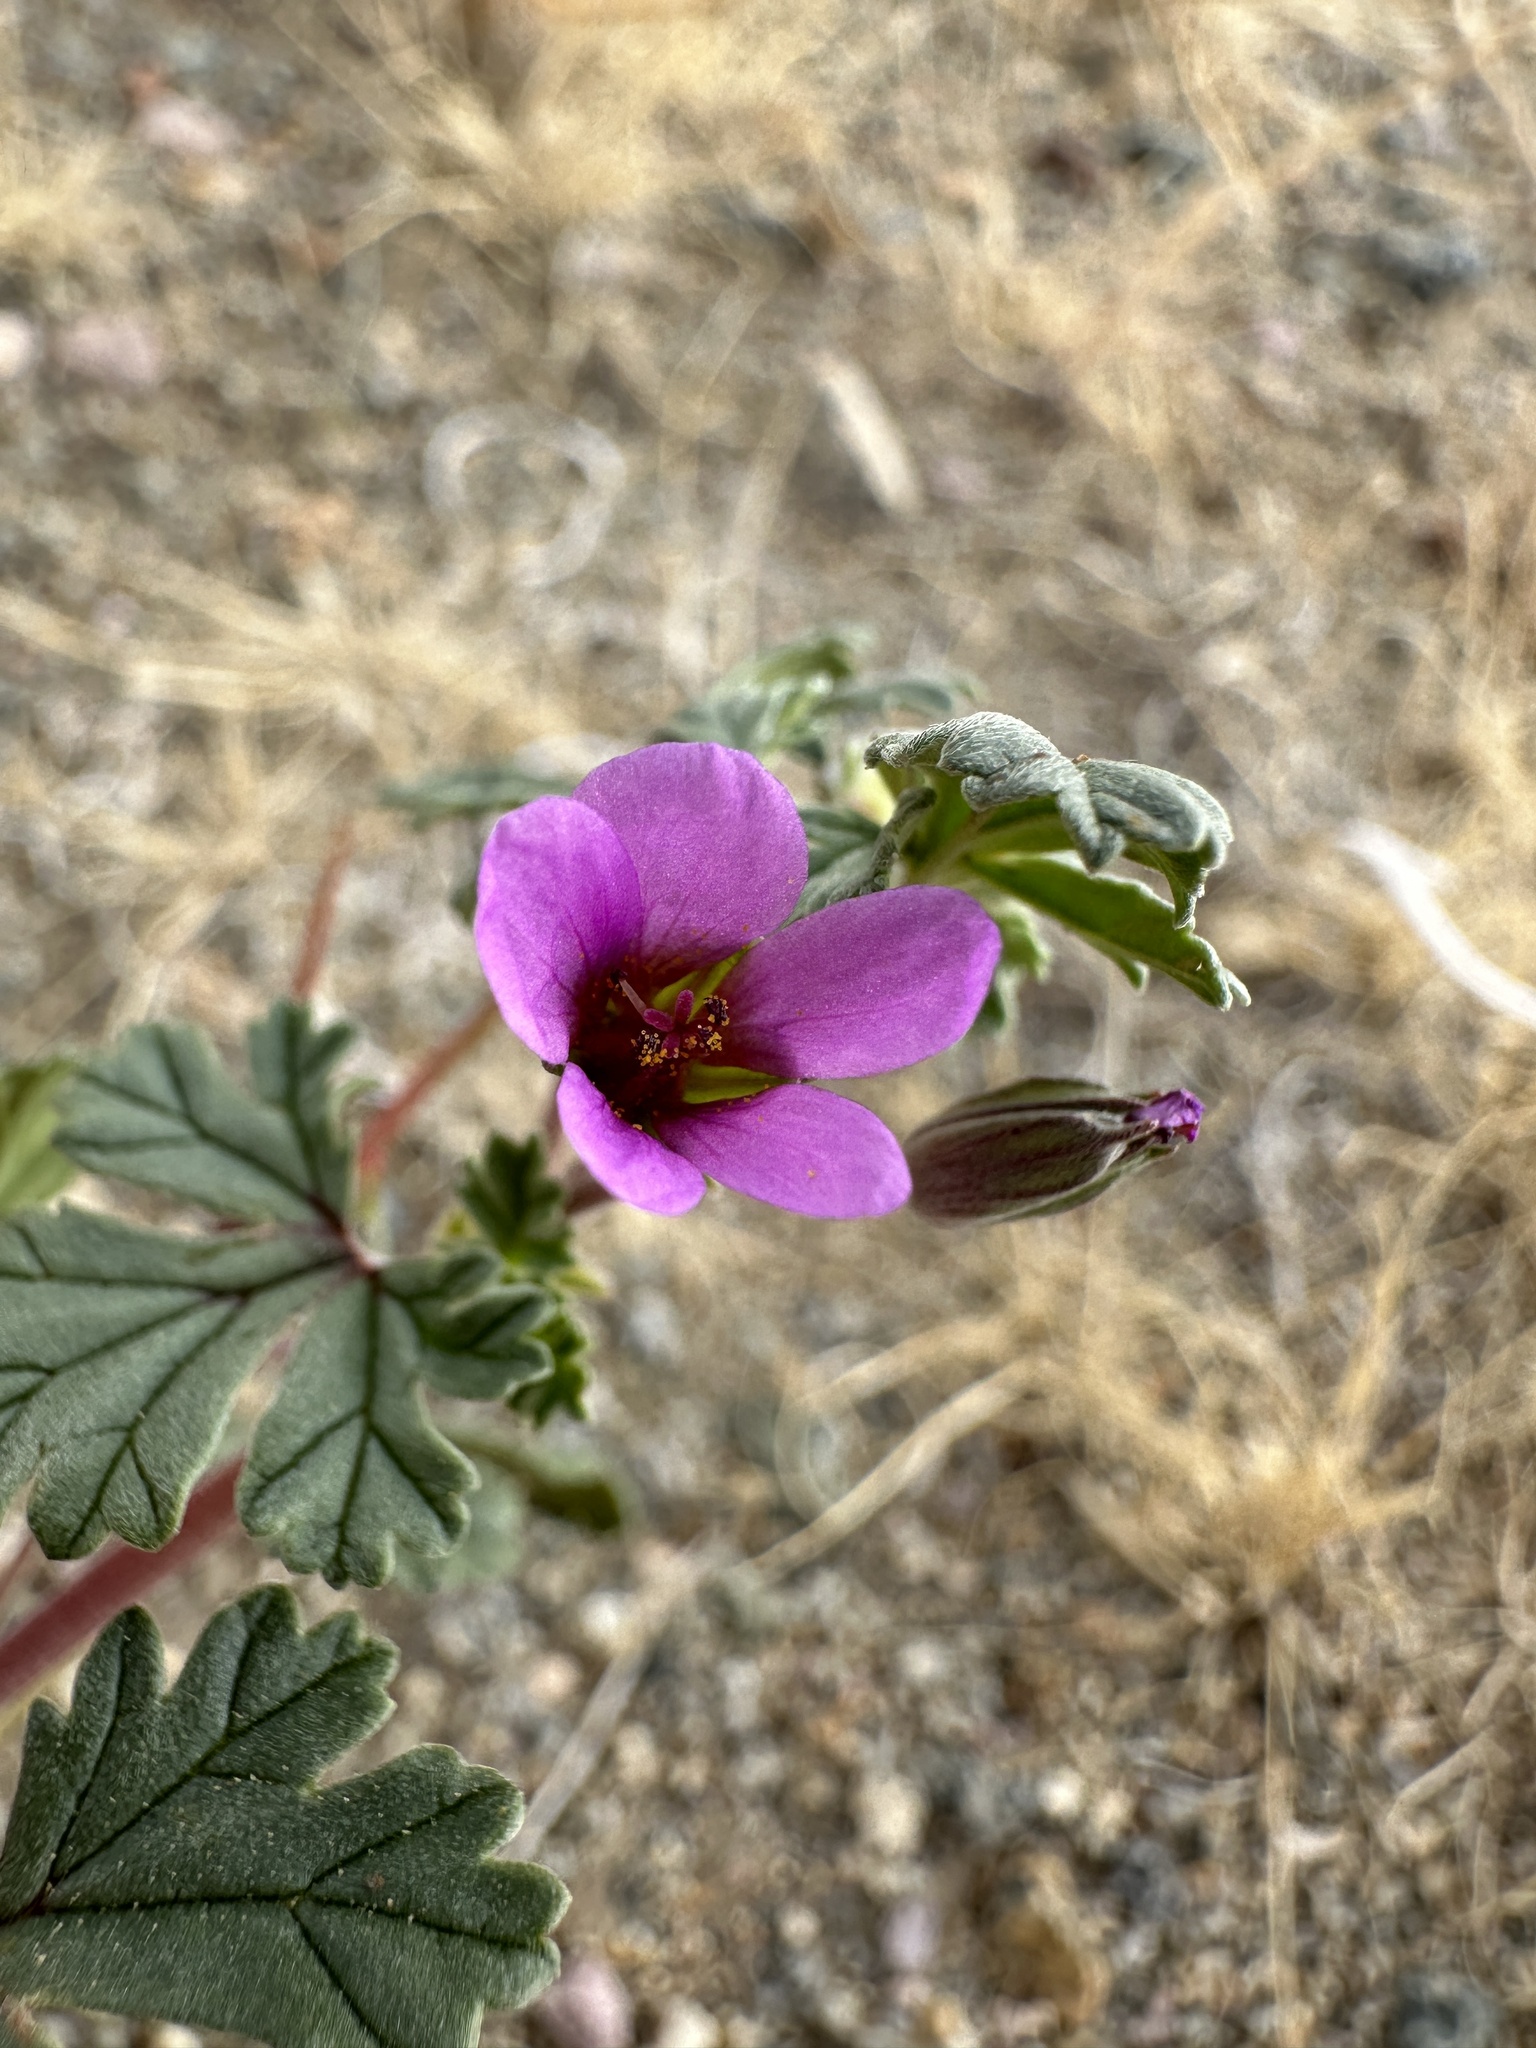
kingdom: Plantae
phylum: Tracheophyta
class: Magnoliopsida
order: Geraniales
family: Geraniaceae
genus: Erodium
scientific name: Erodium texanum
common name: Texas stork's-bill
